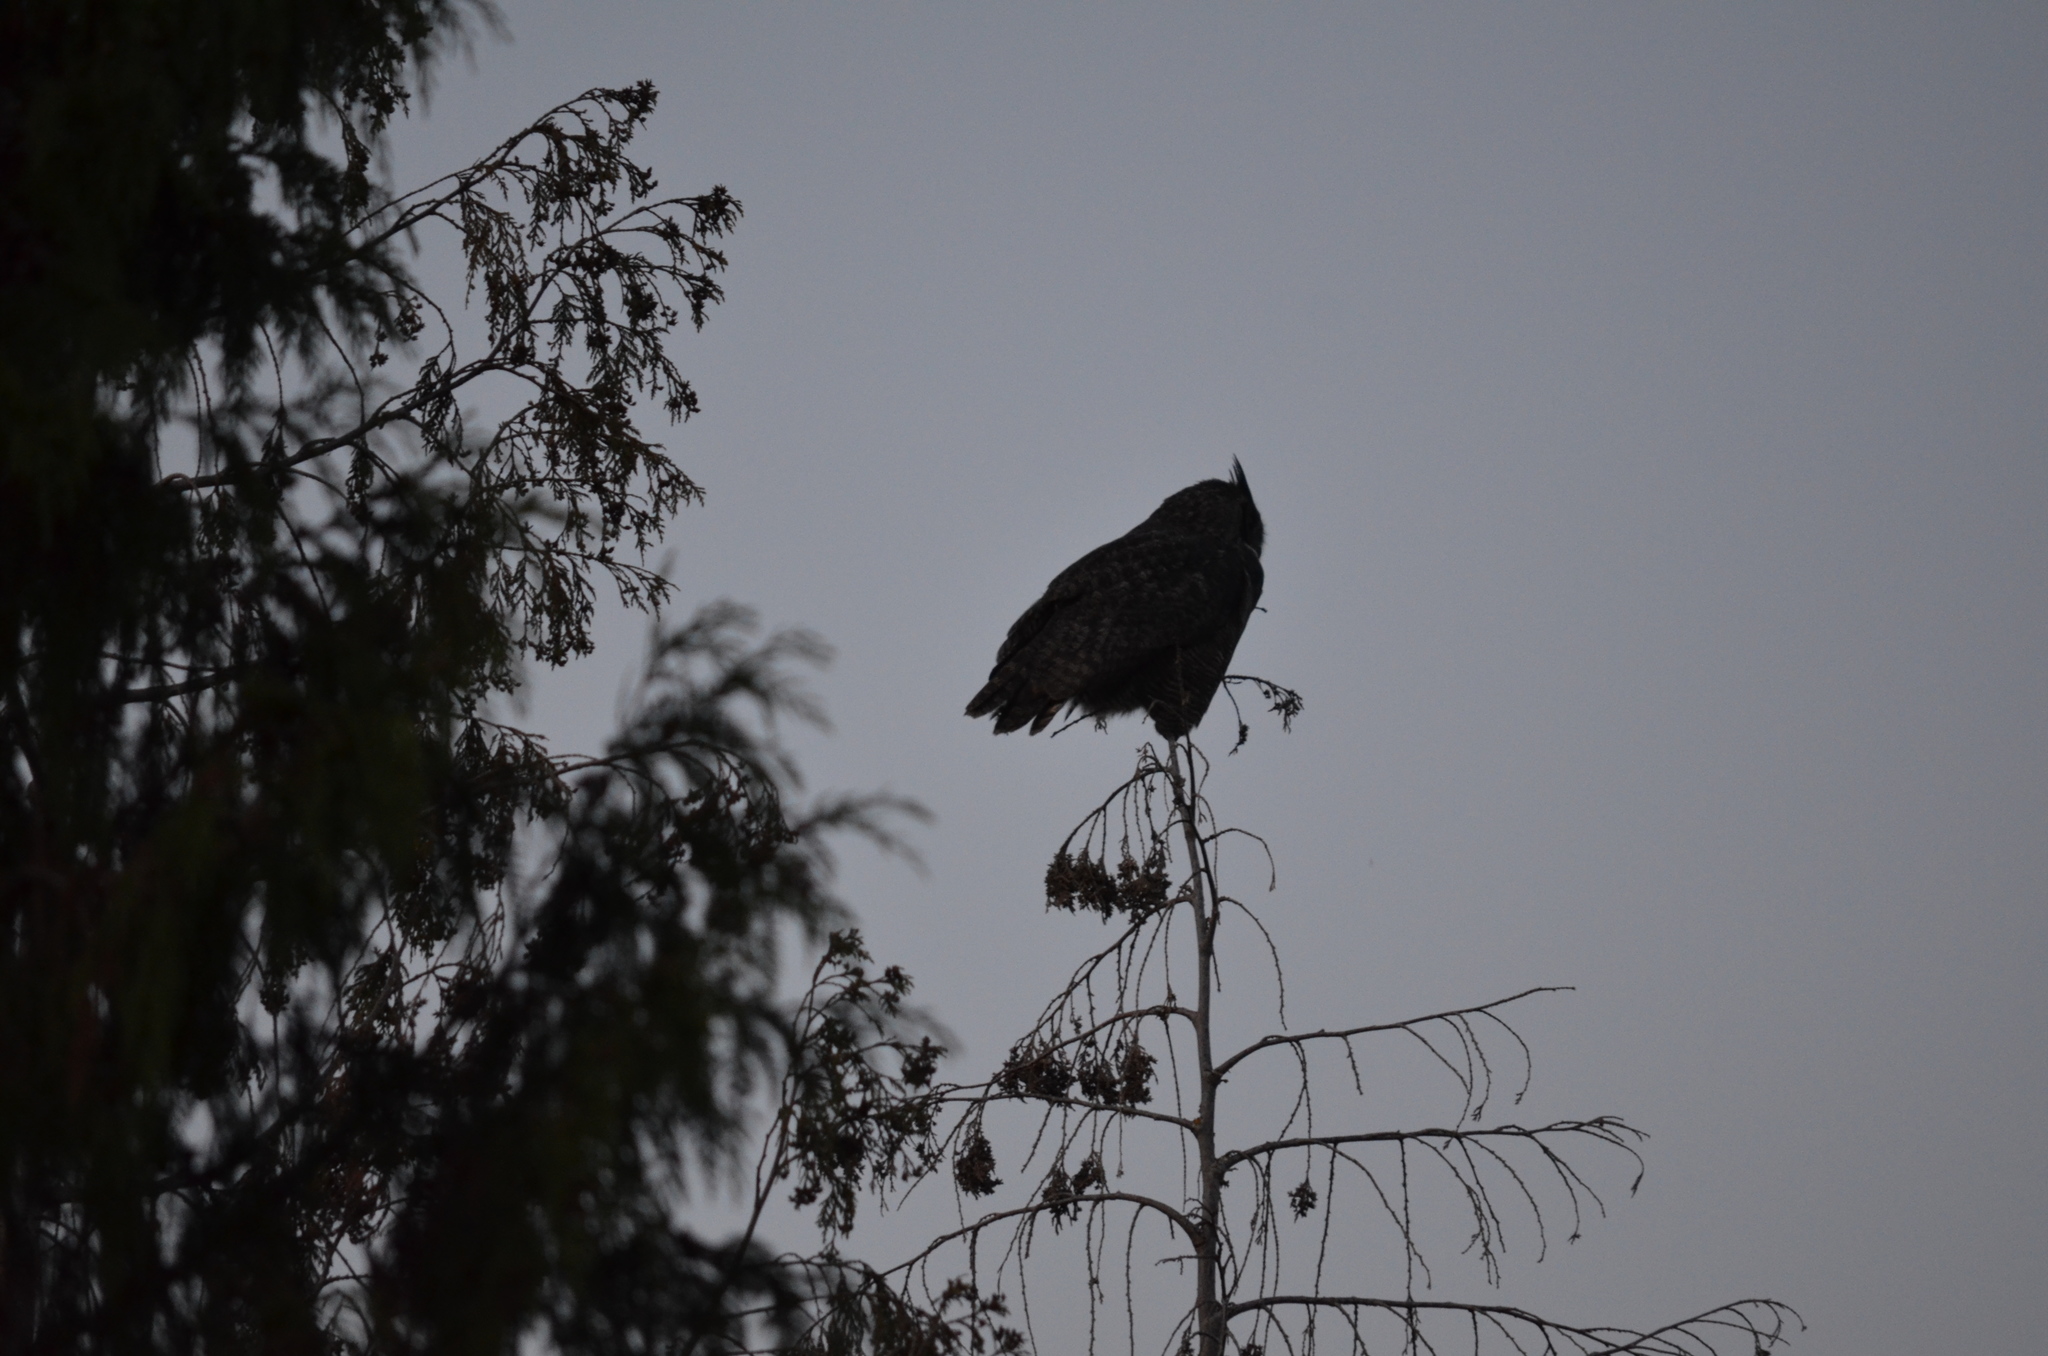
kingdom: Animalia
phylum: Chordata
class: Aves
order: Strigiformes
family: Strigidae
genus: Bubo
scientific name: Bubo virginianus
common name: Great horned owl
